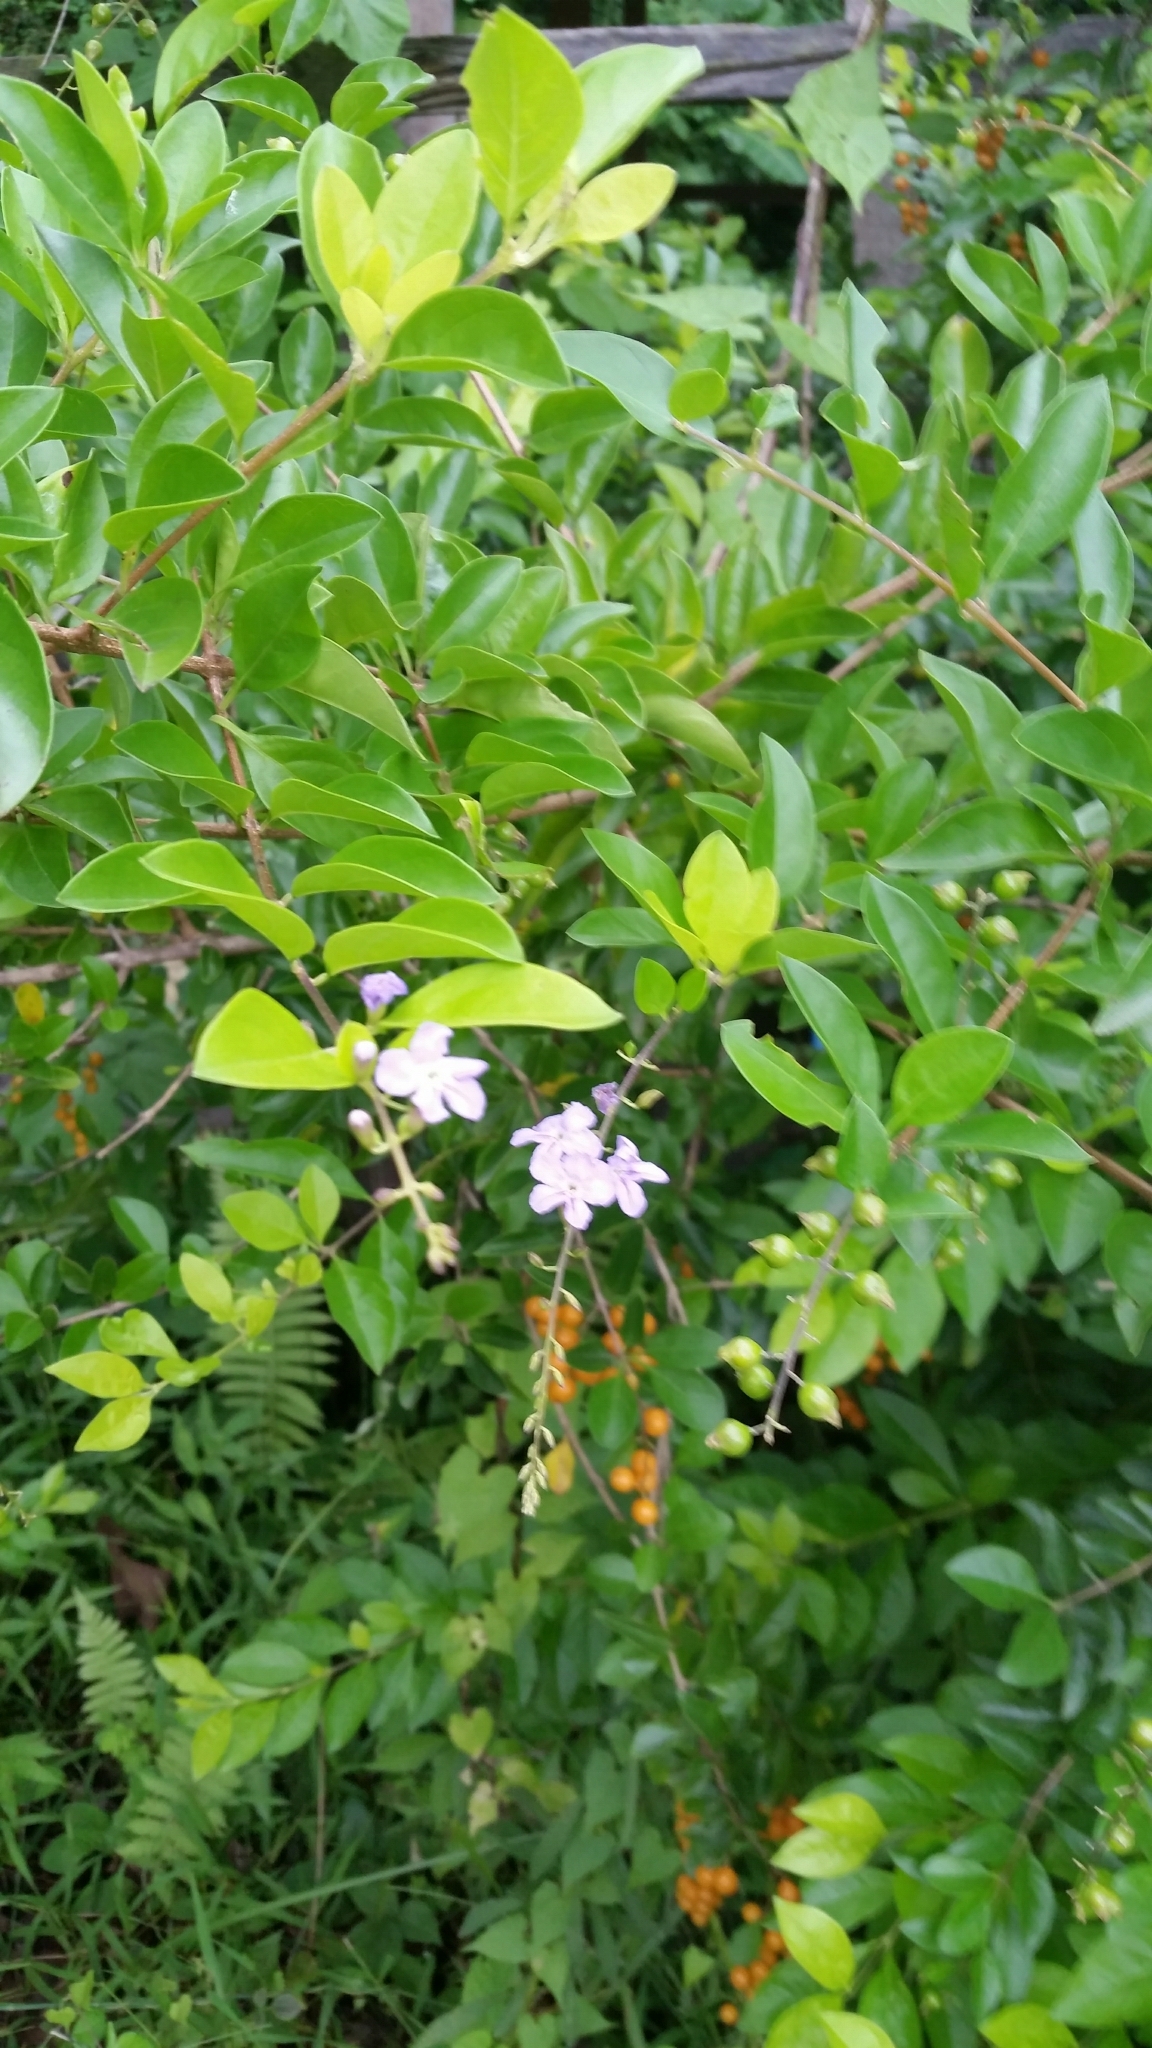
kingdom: Plantae
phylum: Tracheophyta
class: Magnoliopsida
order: Lamiales
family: Verbenaceae
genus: Duranta
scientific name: Duranta erecta
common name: Golden dewdrops
